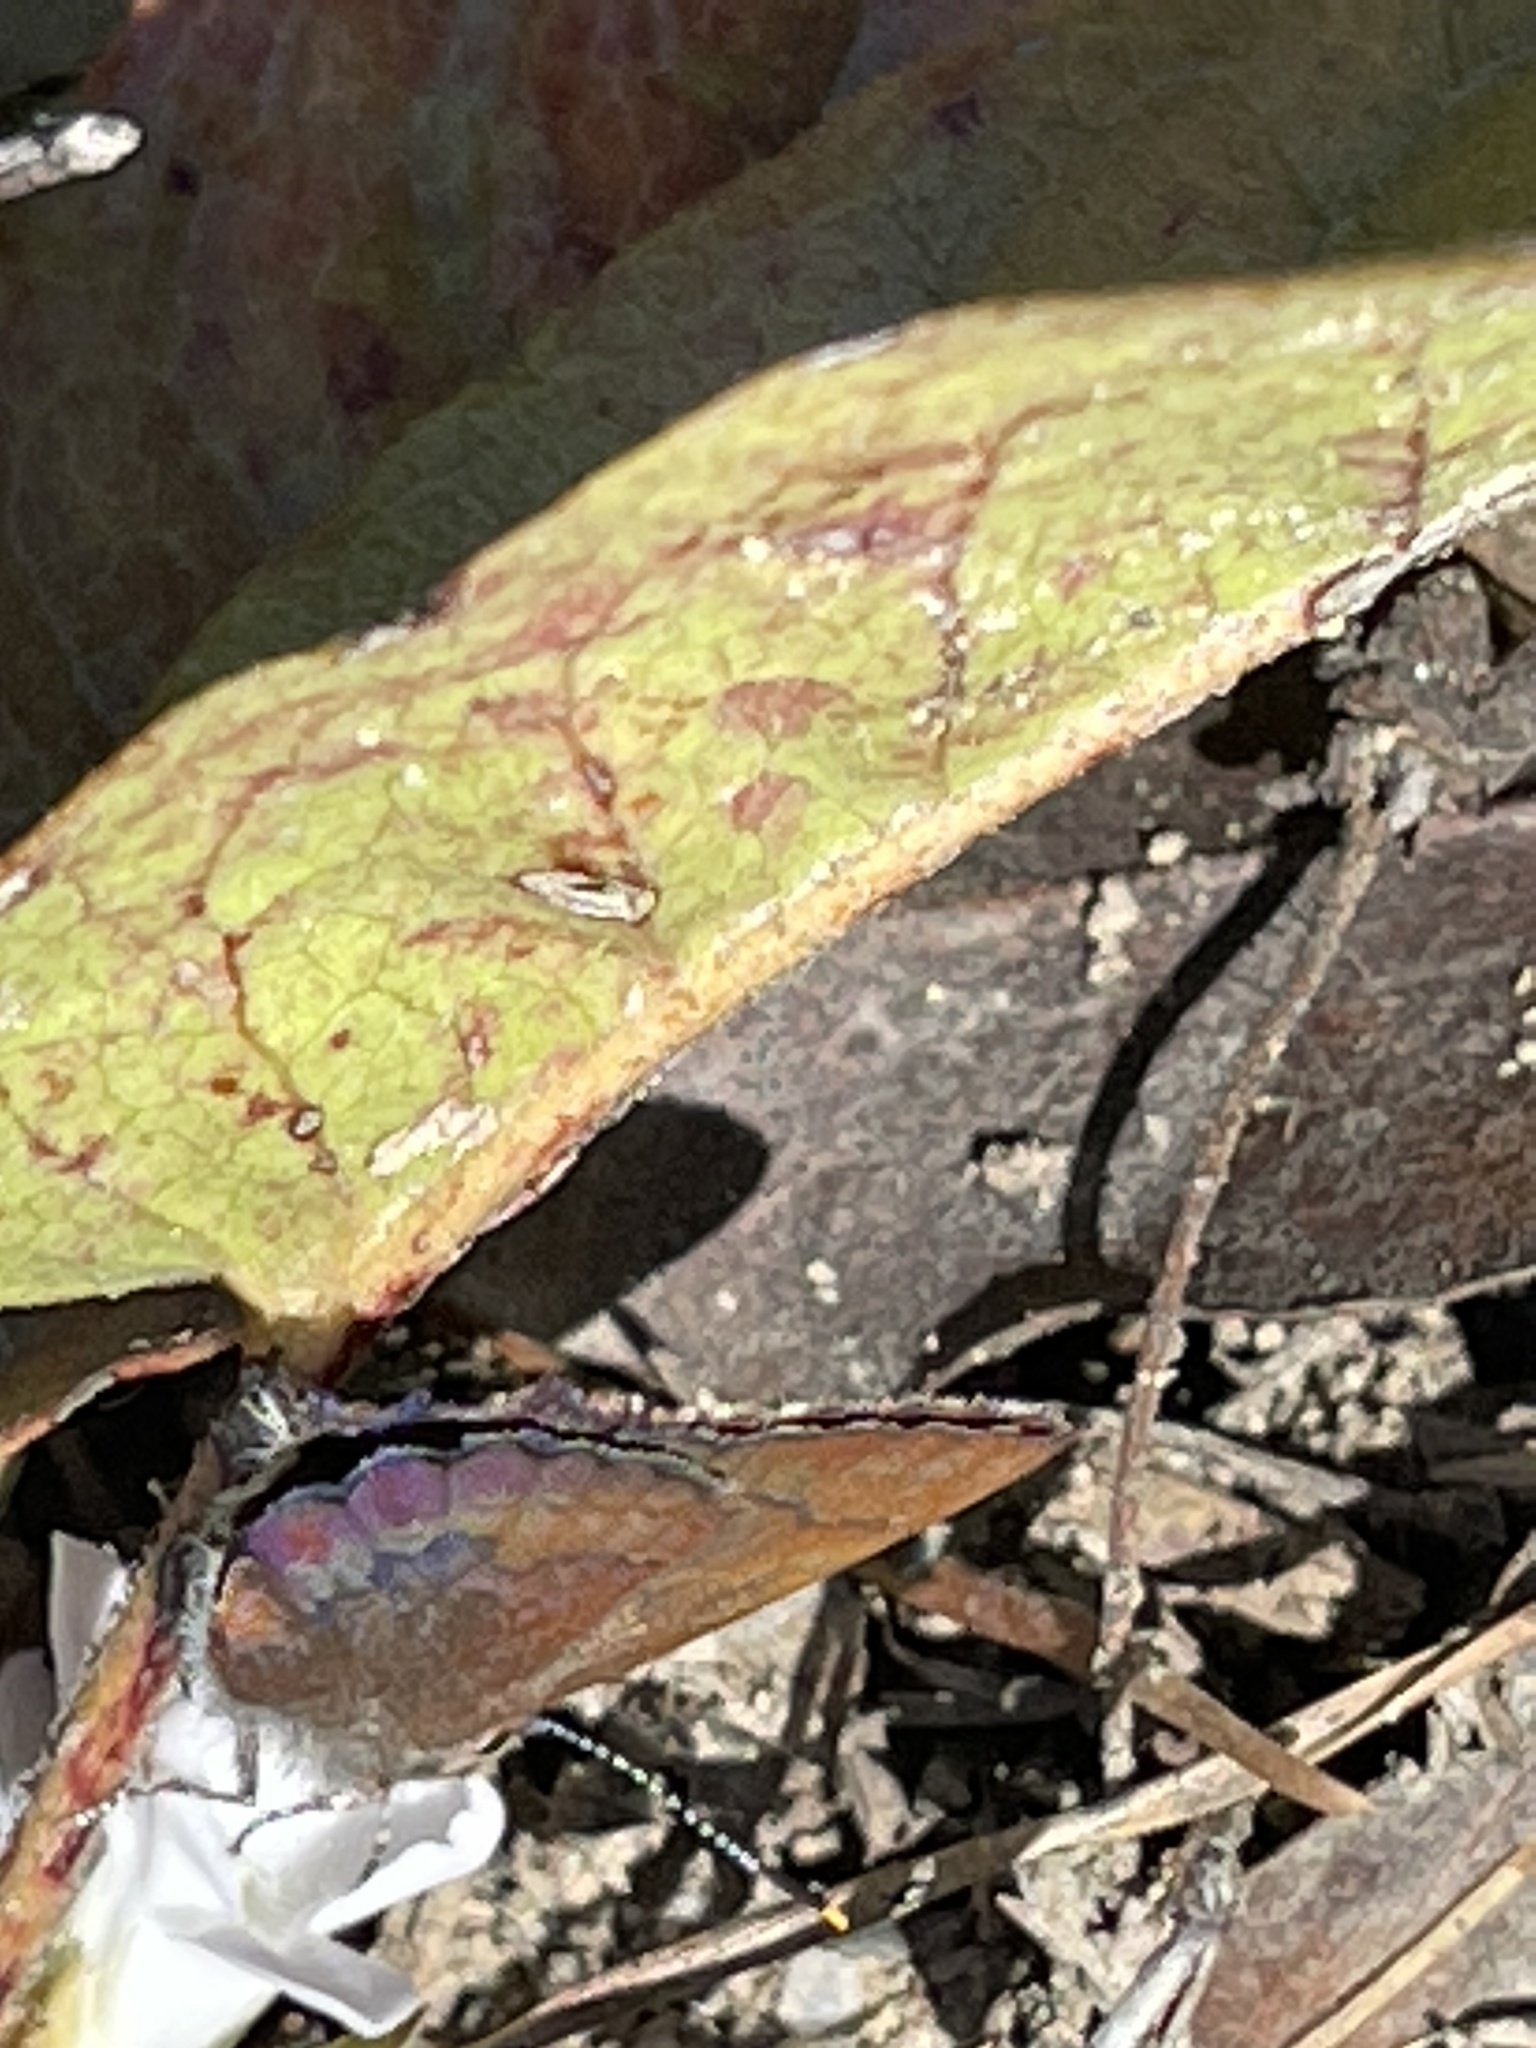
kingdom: Animalia
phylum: Arthropoda
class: Insecta
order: Lepidoptera
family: Lycaenidae
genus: Incisalia
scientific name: Incisalia irioides
